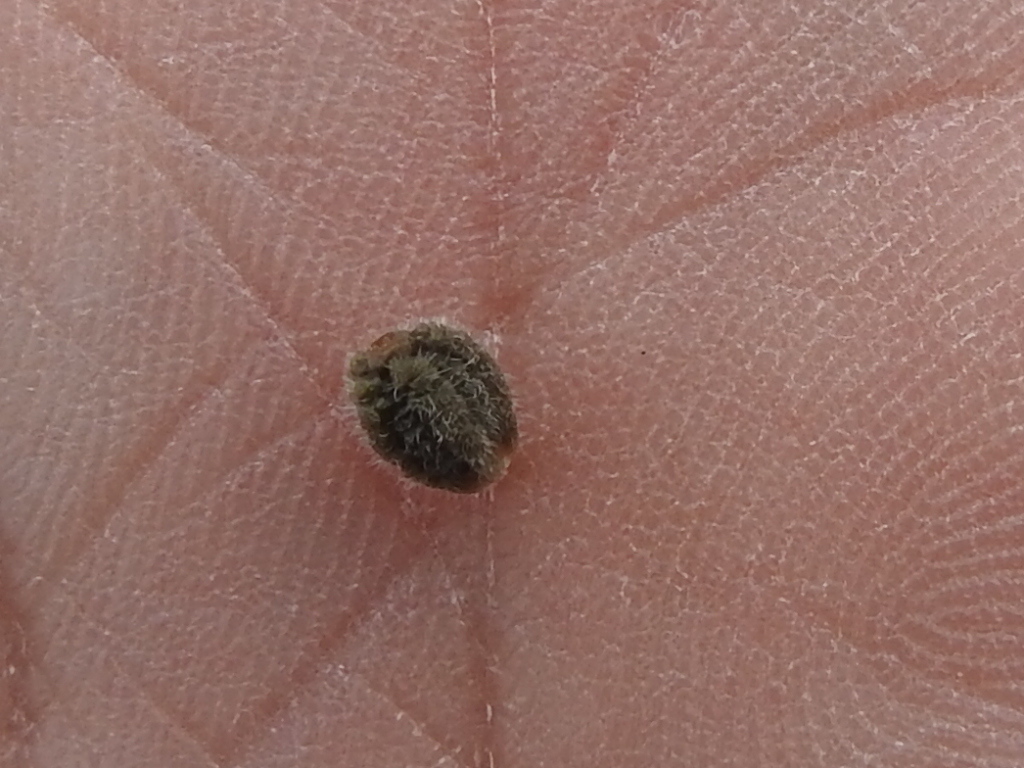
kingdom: Plantae
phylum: Tracheophyta
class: Magnoliopsida
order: Caryophyllales
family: Nyctaginaceae
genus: Mirabilis
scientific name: Mirabilis melanotricha
